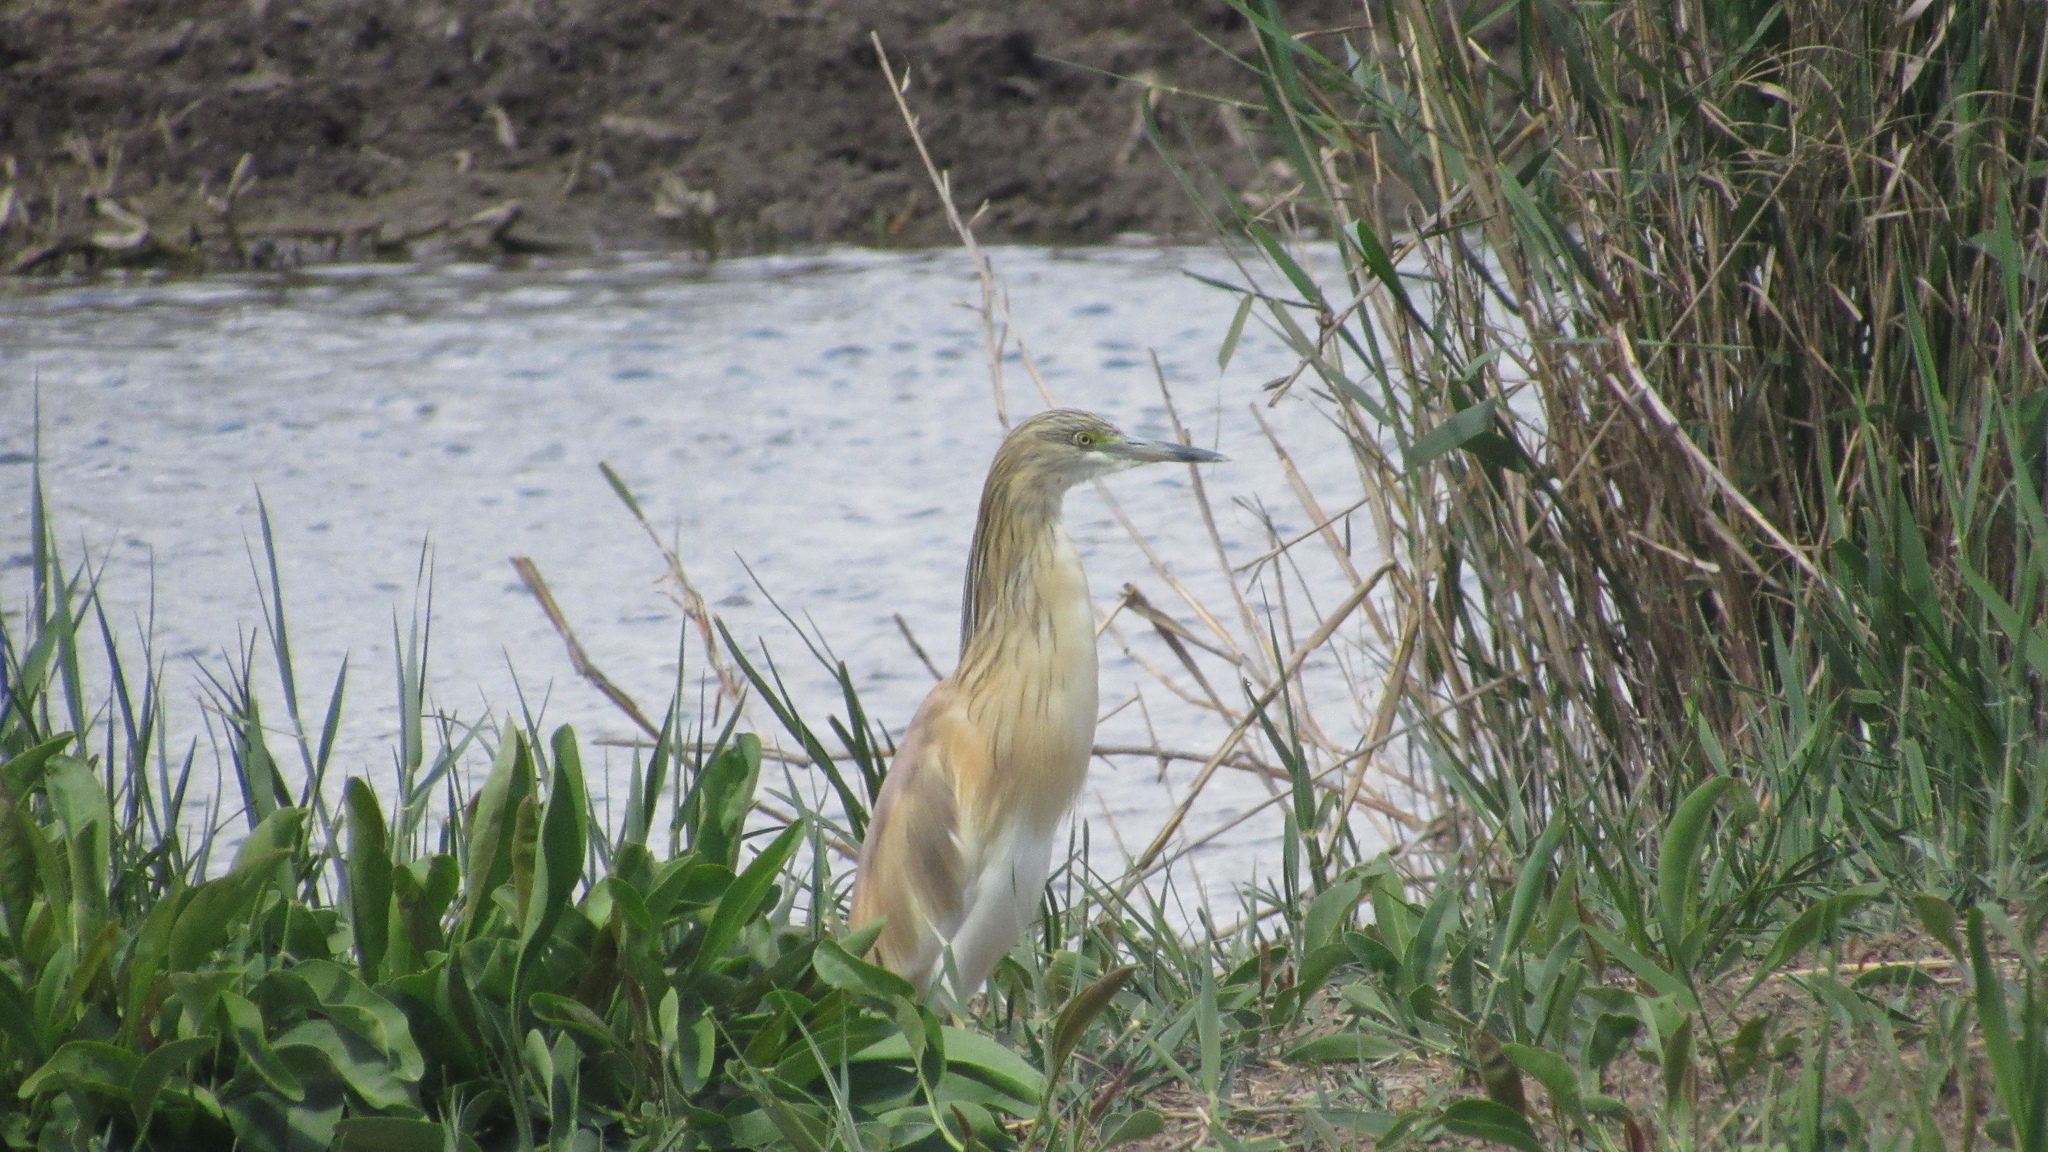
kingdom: Animalia
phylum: Chordata
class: Aves
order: Pelecaniformes
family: Ardeidae
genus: Ardeola
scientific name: Ardeola ralloides
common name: Squacco heron
